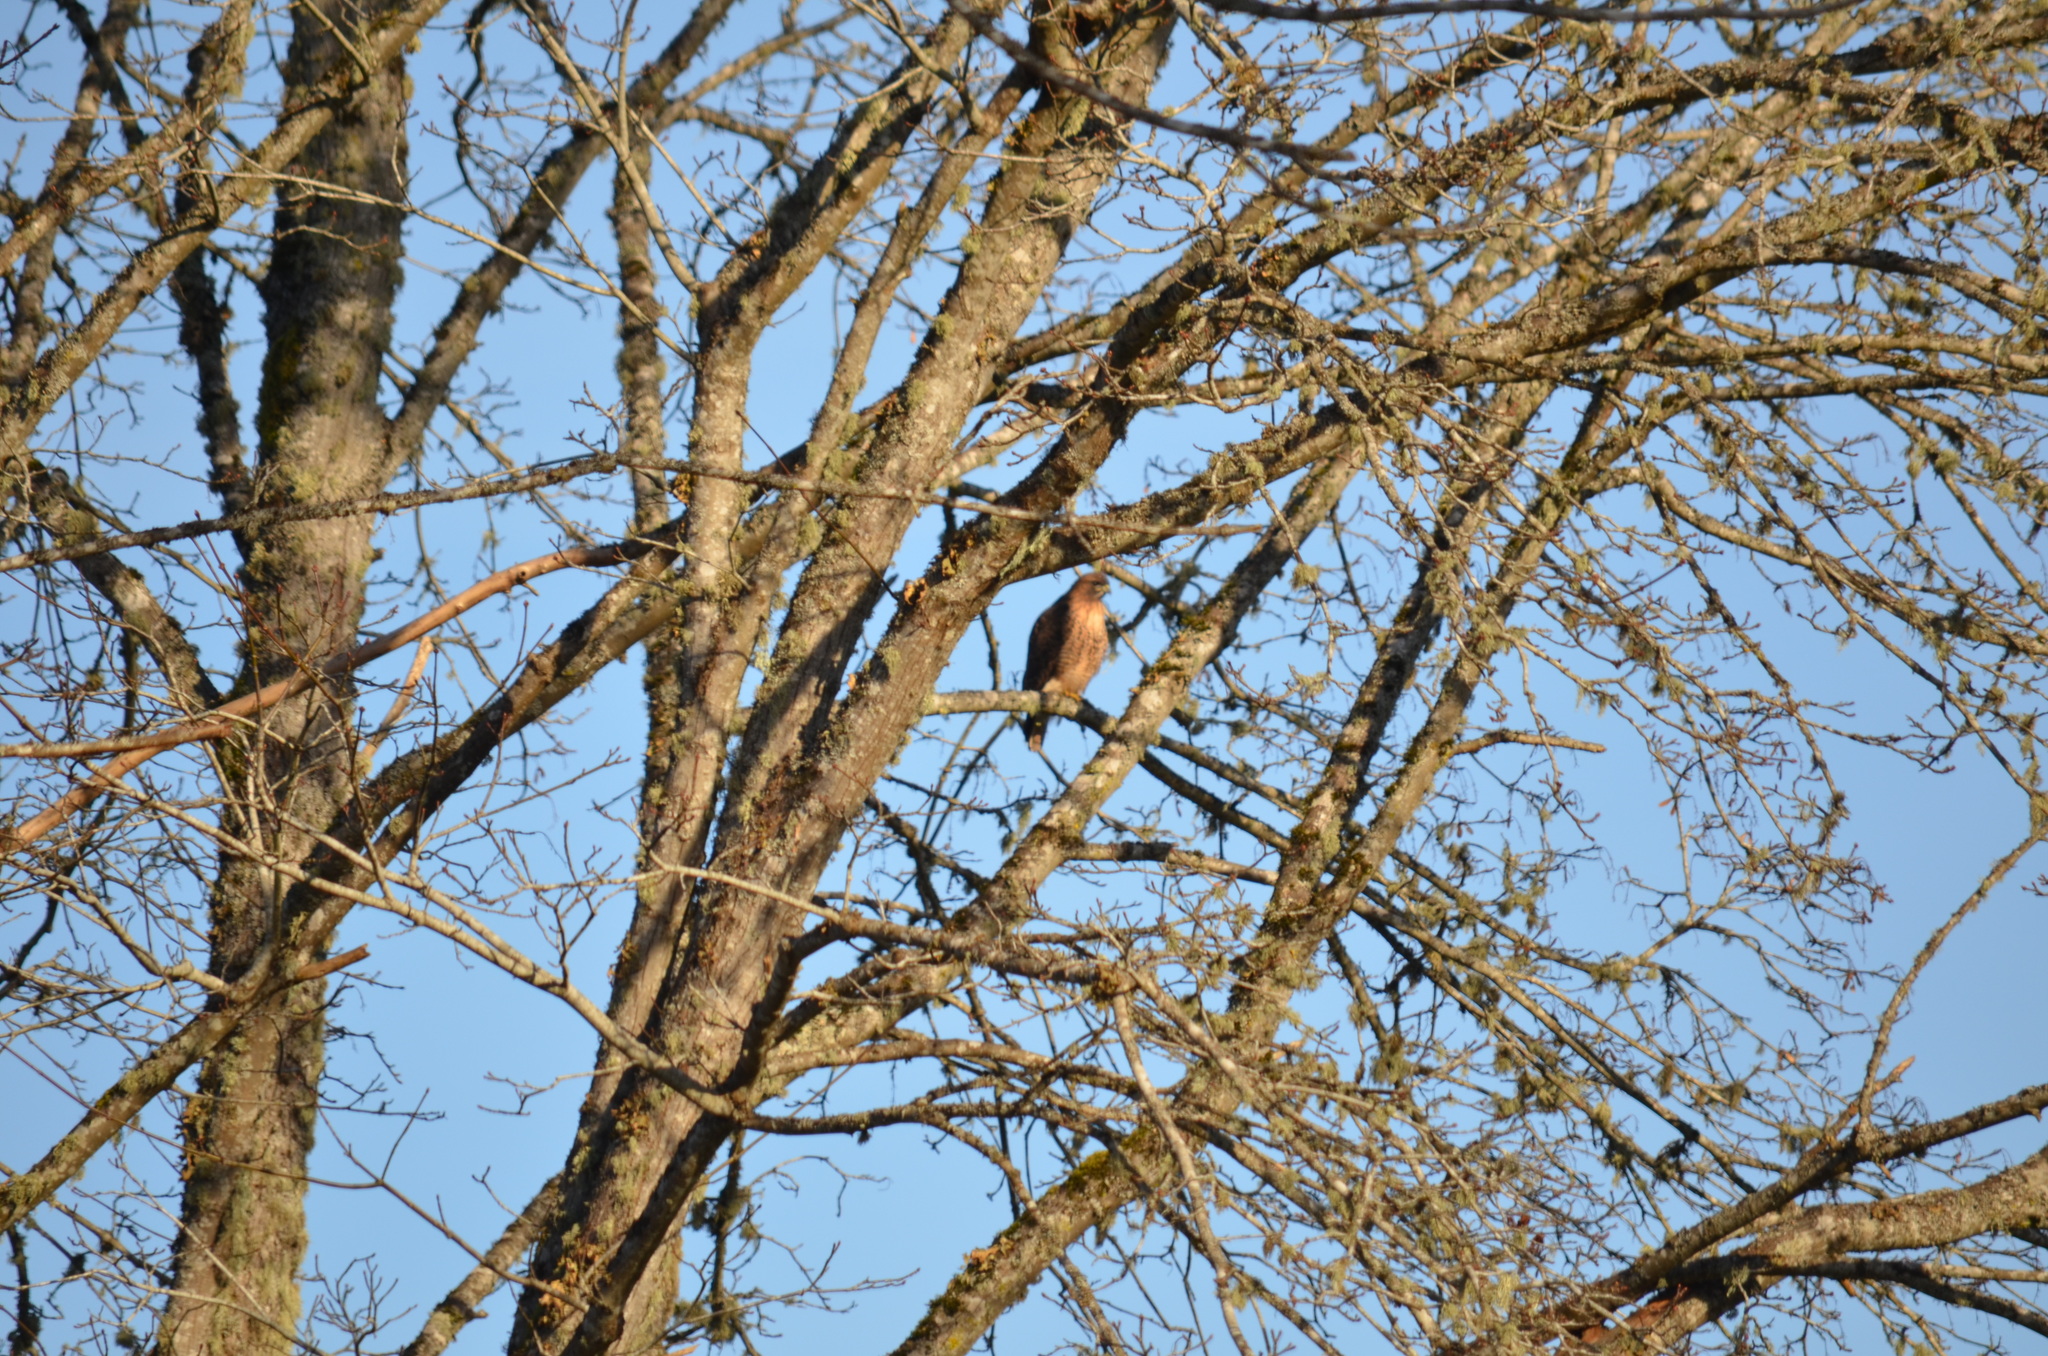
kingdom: Animalia
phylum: Chordata
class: Aves
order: Accipitriformes
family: Accipitridae
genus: Buteo
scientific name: Buteo jamaicensis
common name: Red-tailed hawk
